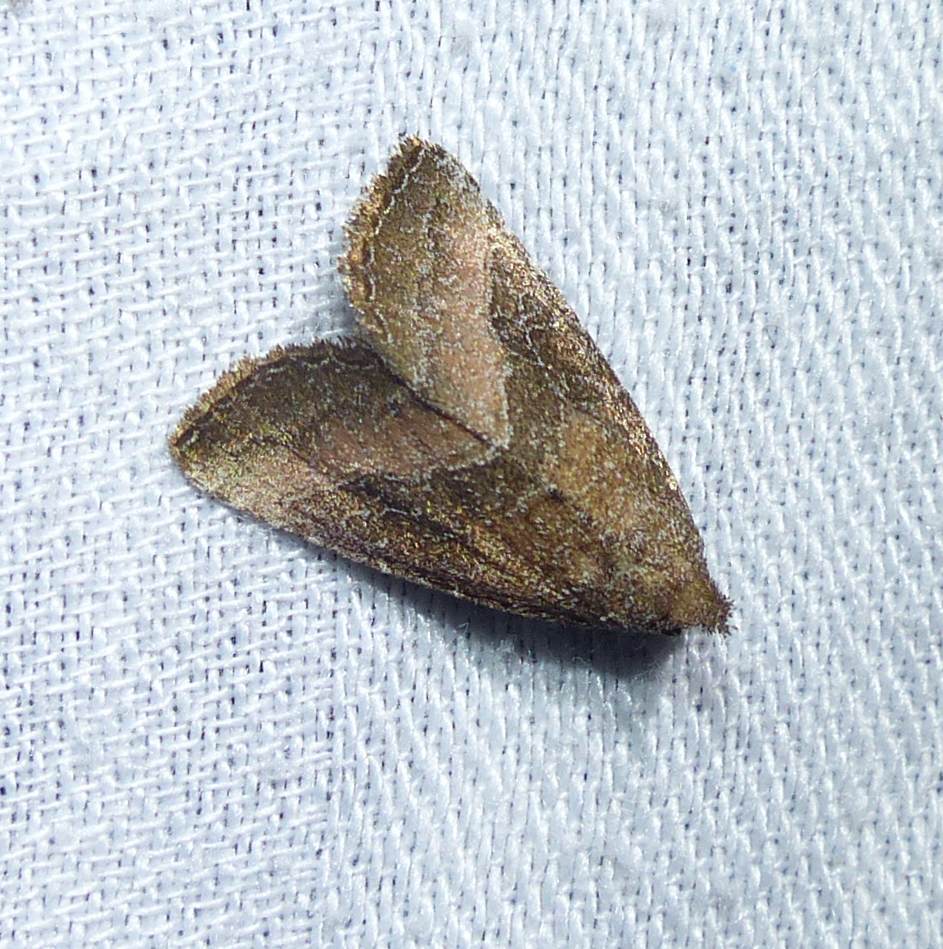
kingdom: Animalia
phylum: Arthropoda
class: Insecta
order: Lepidoptera
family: Noctuidae
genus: Ogdoconta
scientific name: Ogdoconta cinereola
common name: Common pinkband
